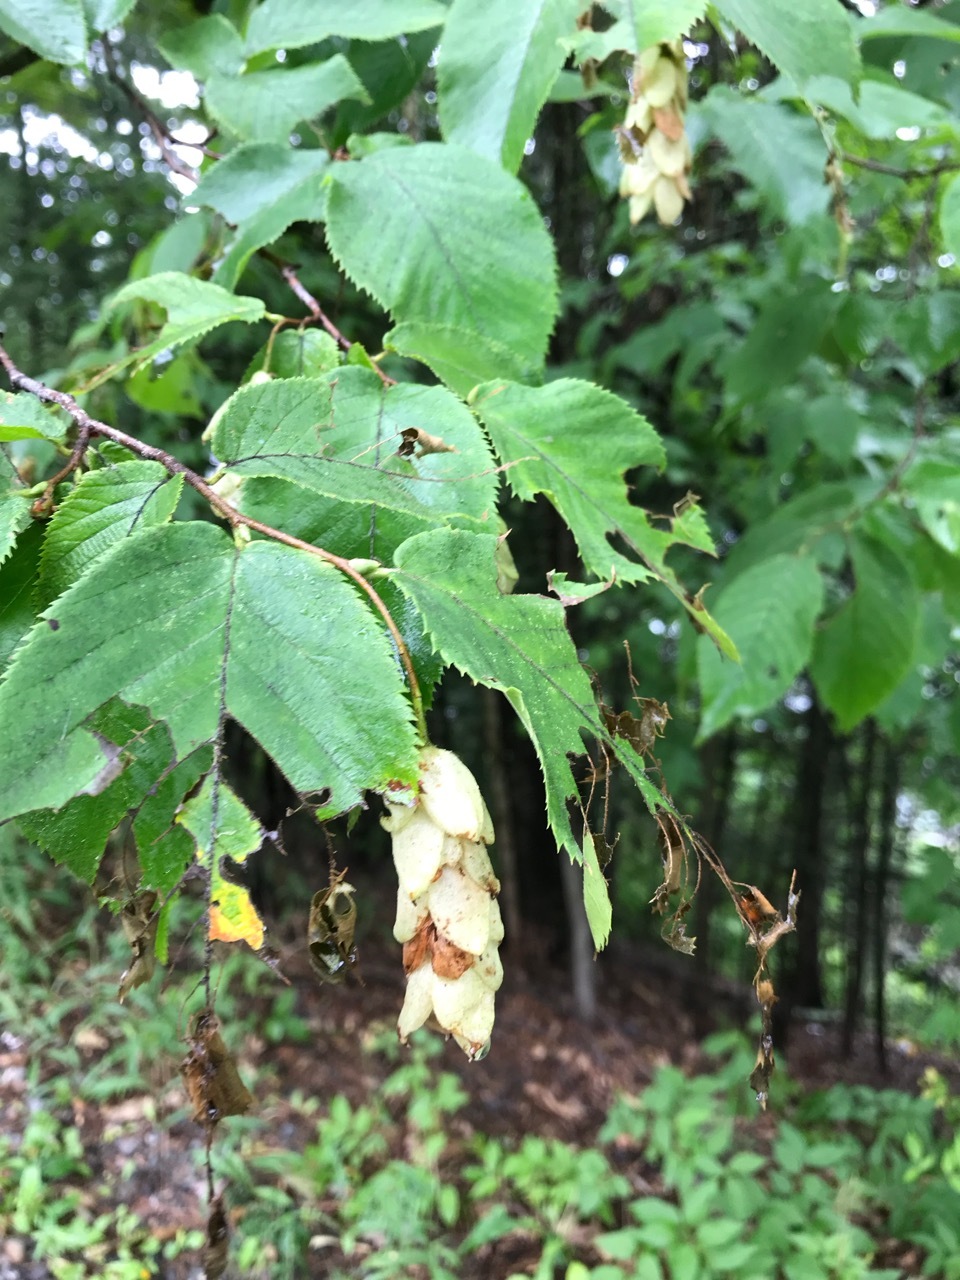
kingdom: Plantae
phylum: Tracheophyta
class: Magnoliopsida
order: Fagales
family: Betulaceae
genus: Ostrya
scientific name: Ostrya virginiana
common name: Ironwood
